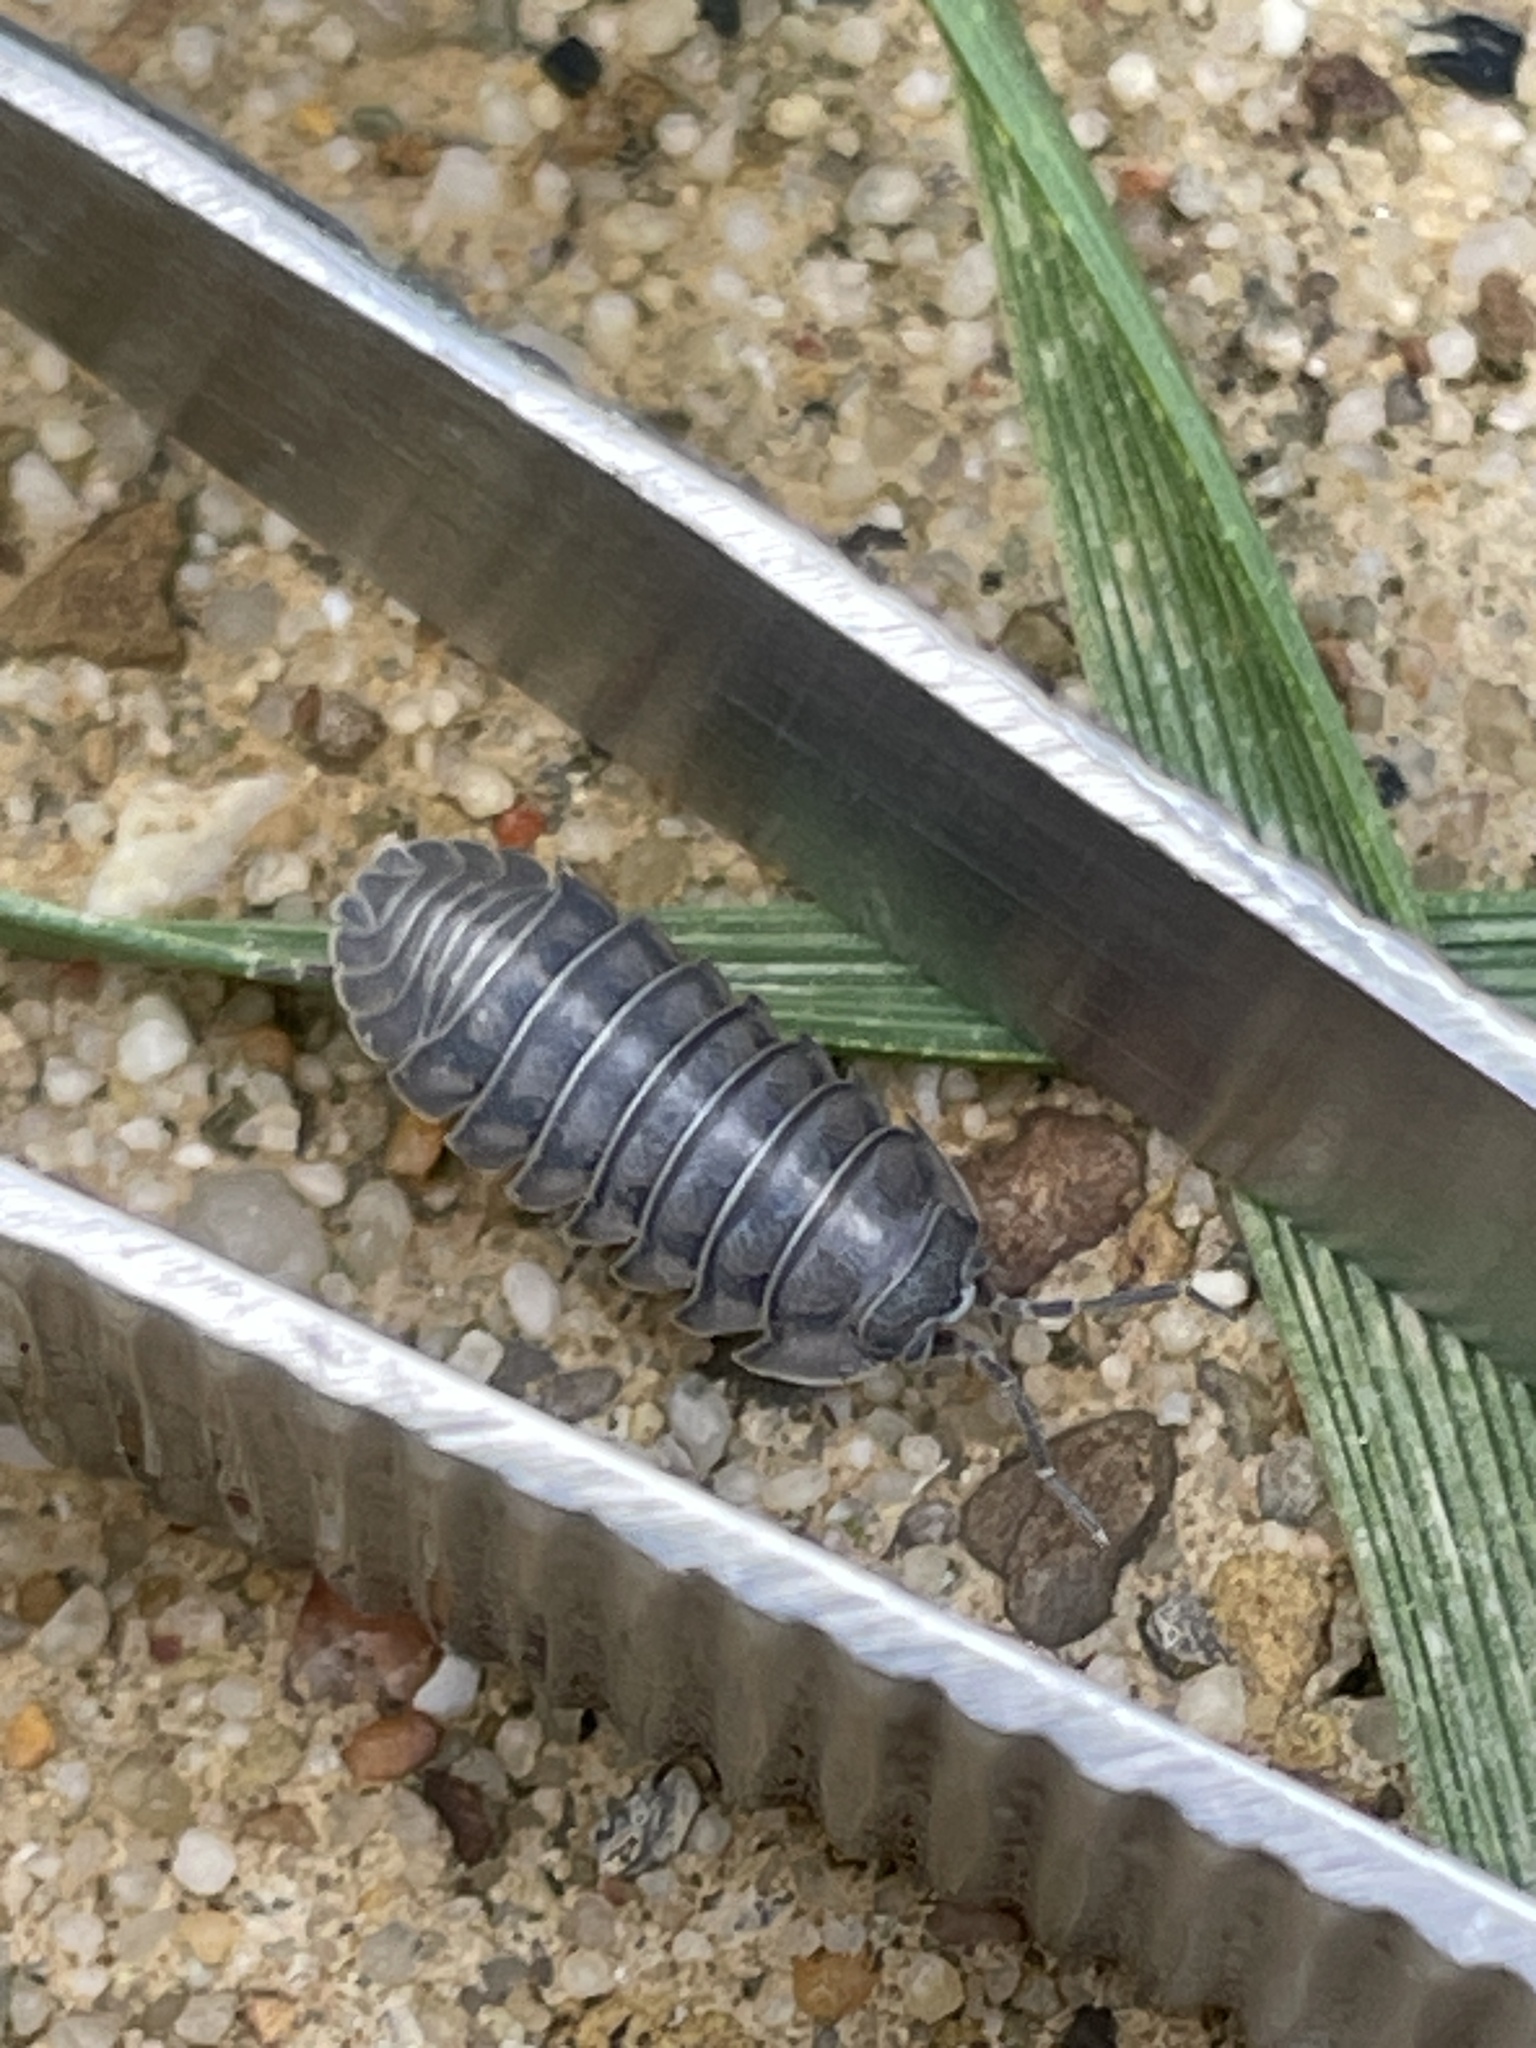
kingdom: Animalia
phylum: Arthropoda
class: Malacostraca
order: Isopoda
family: Armadillidiidae
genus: Armadillidium
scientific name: Armadillidium nasatum
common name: Isopod
